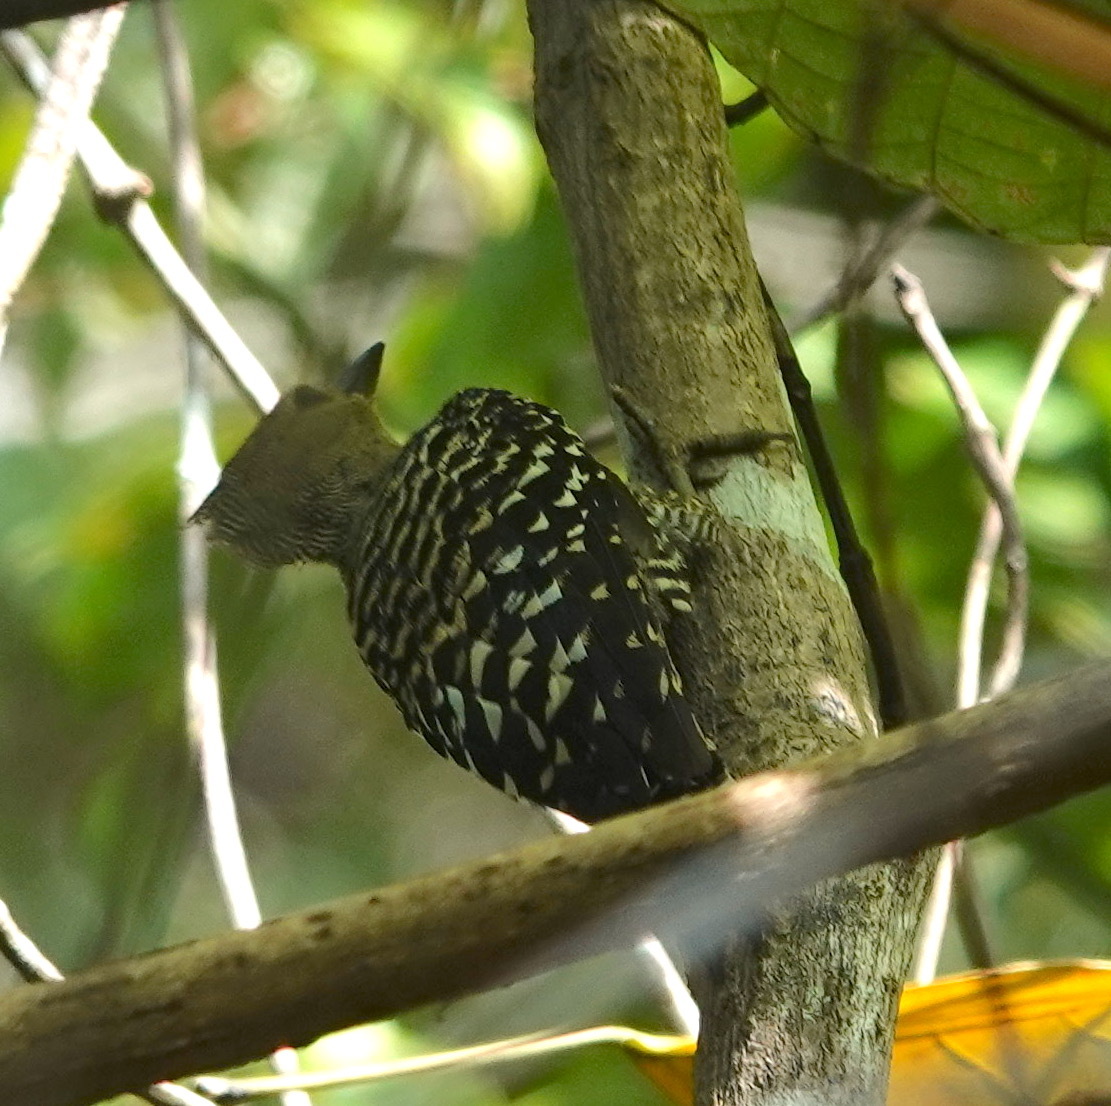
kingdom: Animalia
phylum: Chordata
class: Aves
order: Piciformes
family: Picidae
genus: Meiglyptes
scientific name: Meiglyptes tristis
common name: Buff-rumped woodpecker
